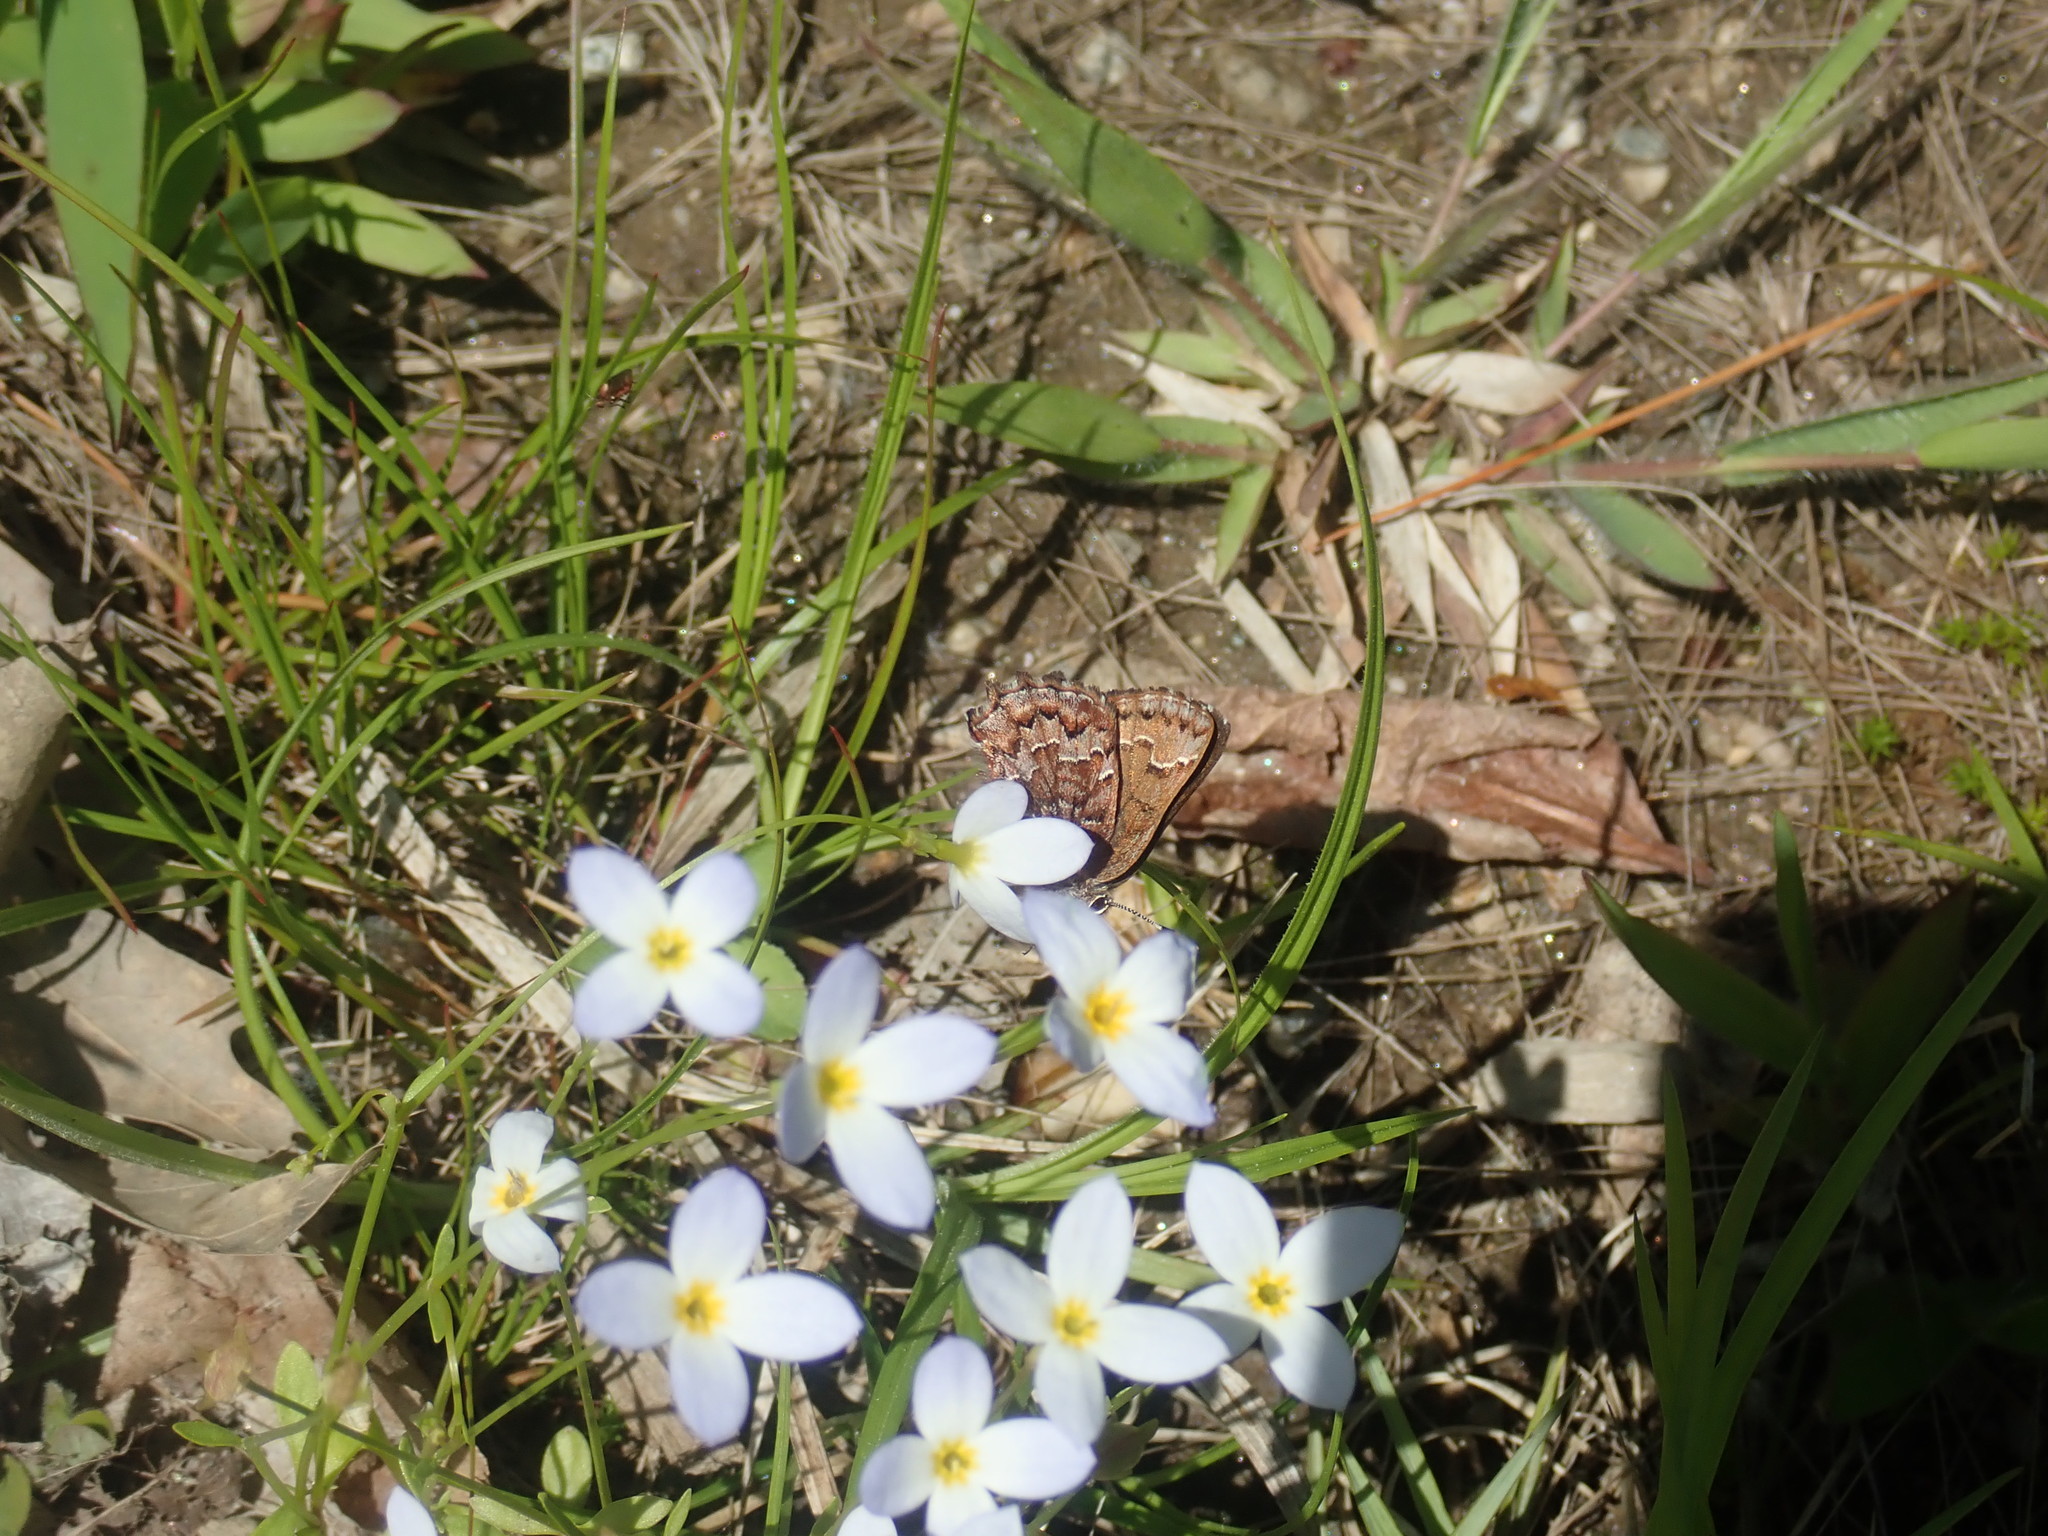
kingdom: Animalia
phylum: Arthropoda
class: Insecta
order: Lepidoptera
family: Lycaenidae
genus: Incisalia
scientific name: Incisalia niphon
